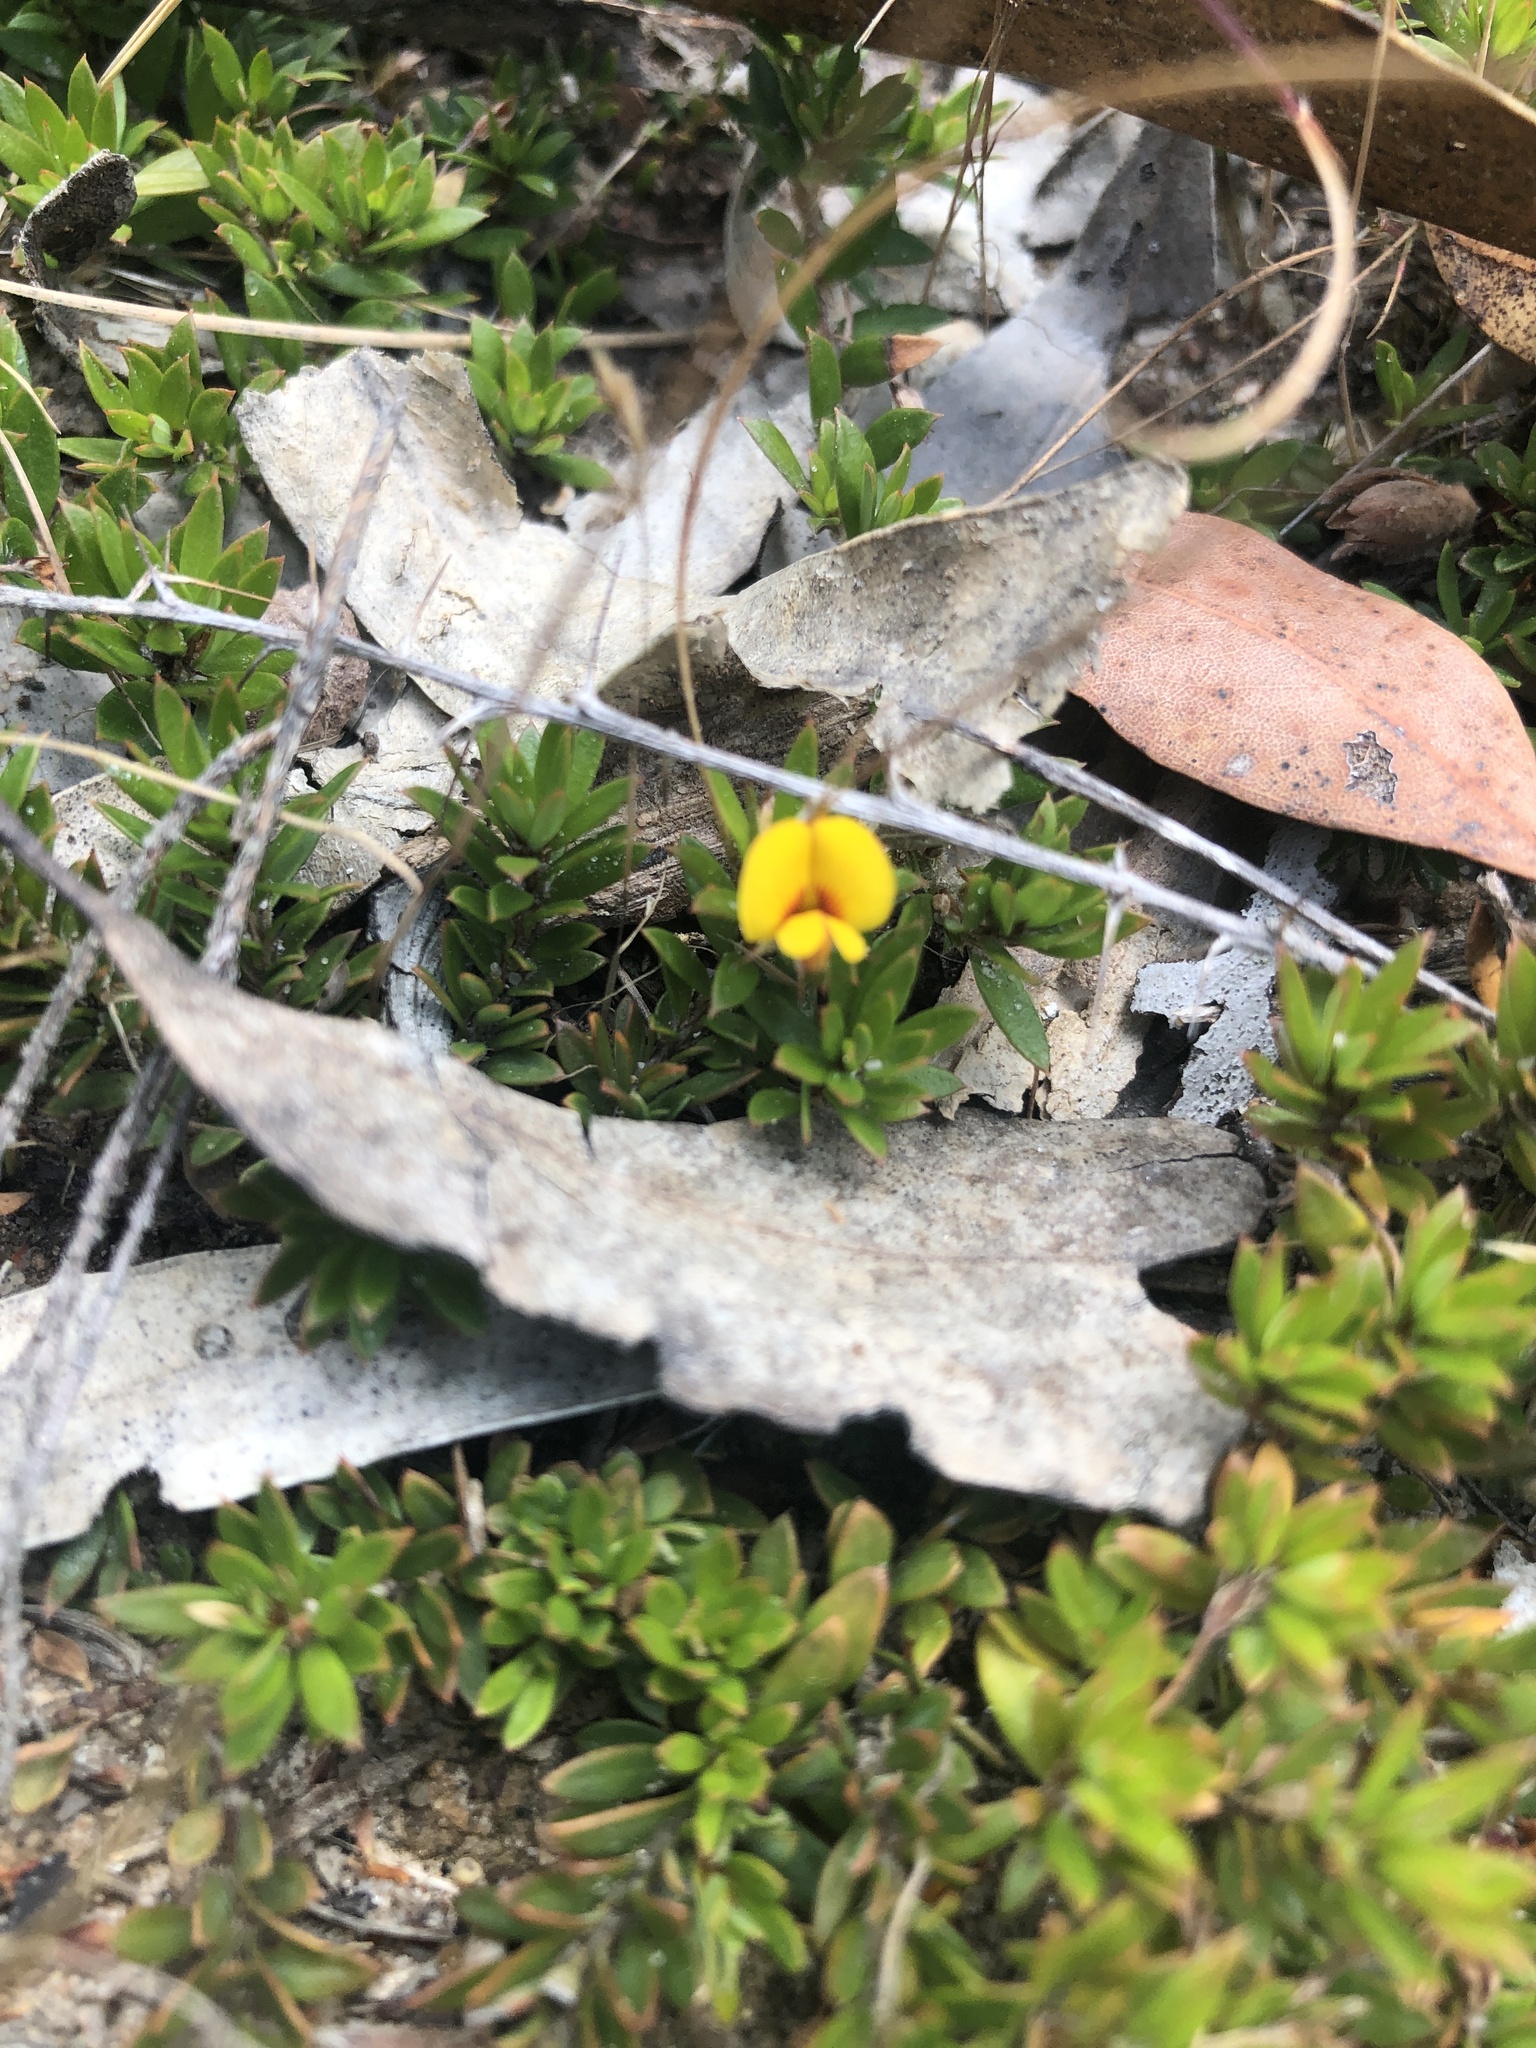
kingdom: Plantae
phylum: Tracheophyta
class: Magnoliopsida
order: Fabales
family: Fabaceae
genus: Pultenaea
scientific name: Pultenaea pedunculata
